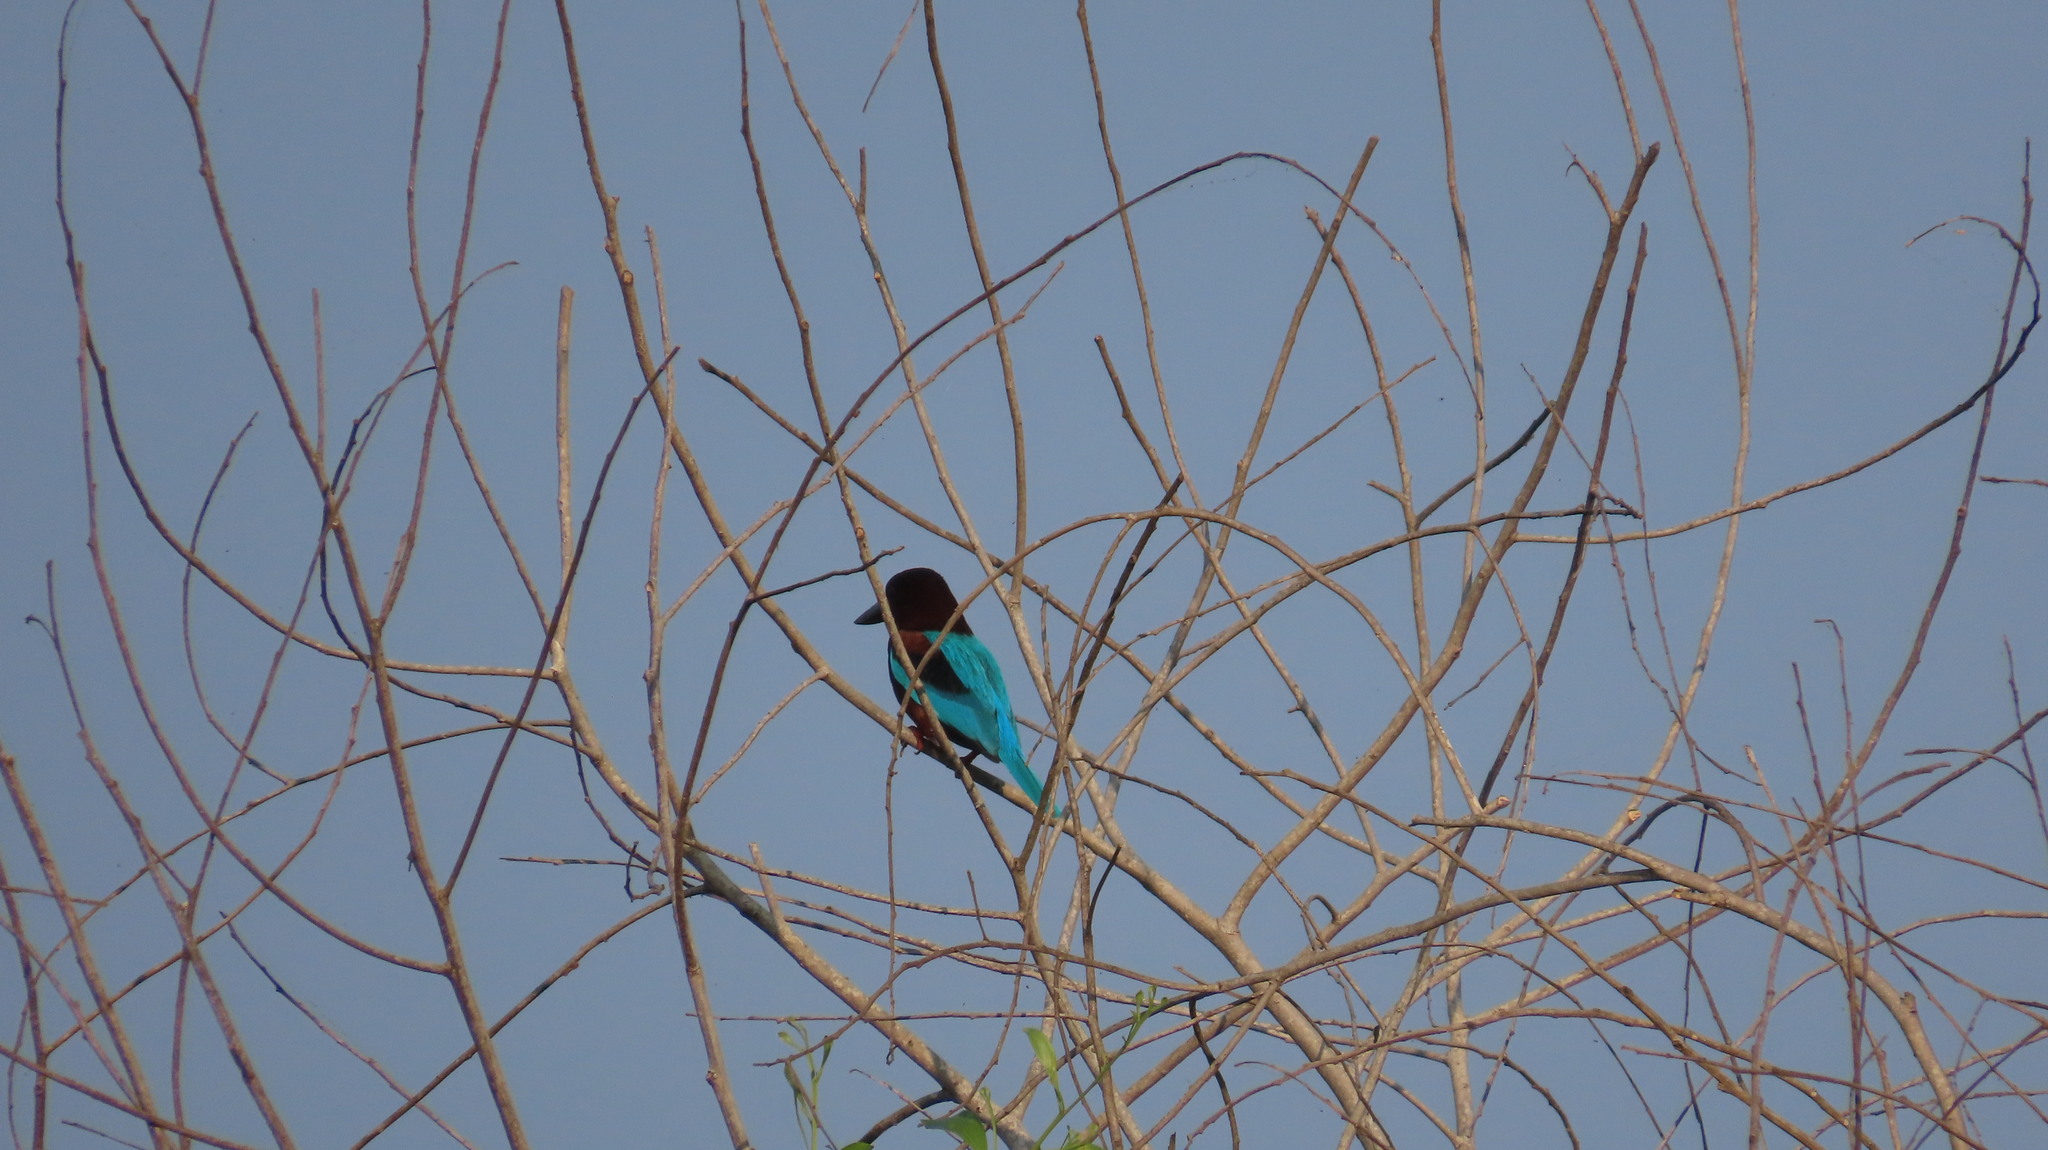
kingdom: Animalia
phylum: Chordata
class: Aves
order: Coraciiformes
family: Alcedinidae
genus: Halcyon
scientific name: Halcyon smyrnensis
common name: White-throated kingfisher
